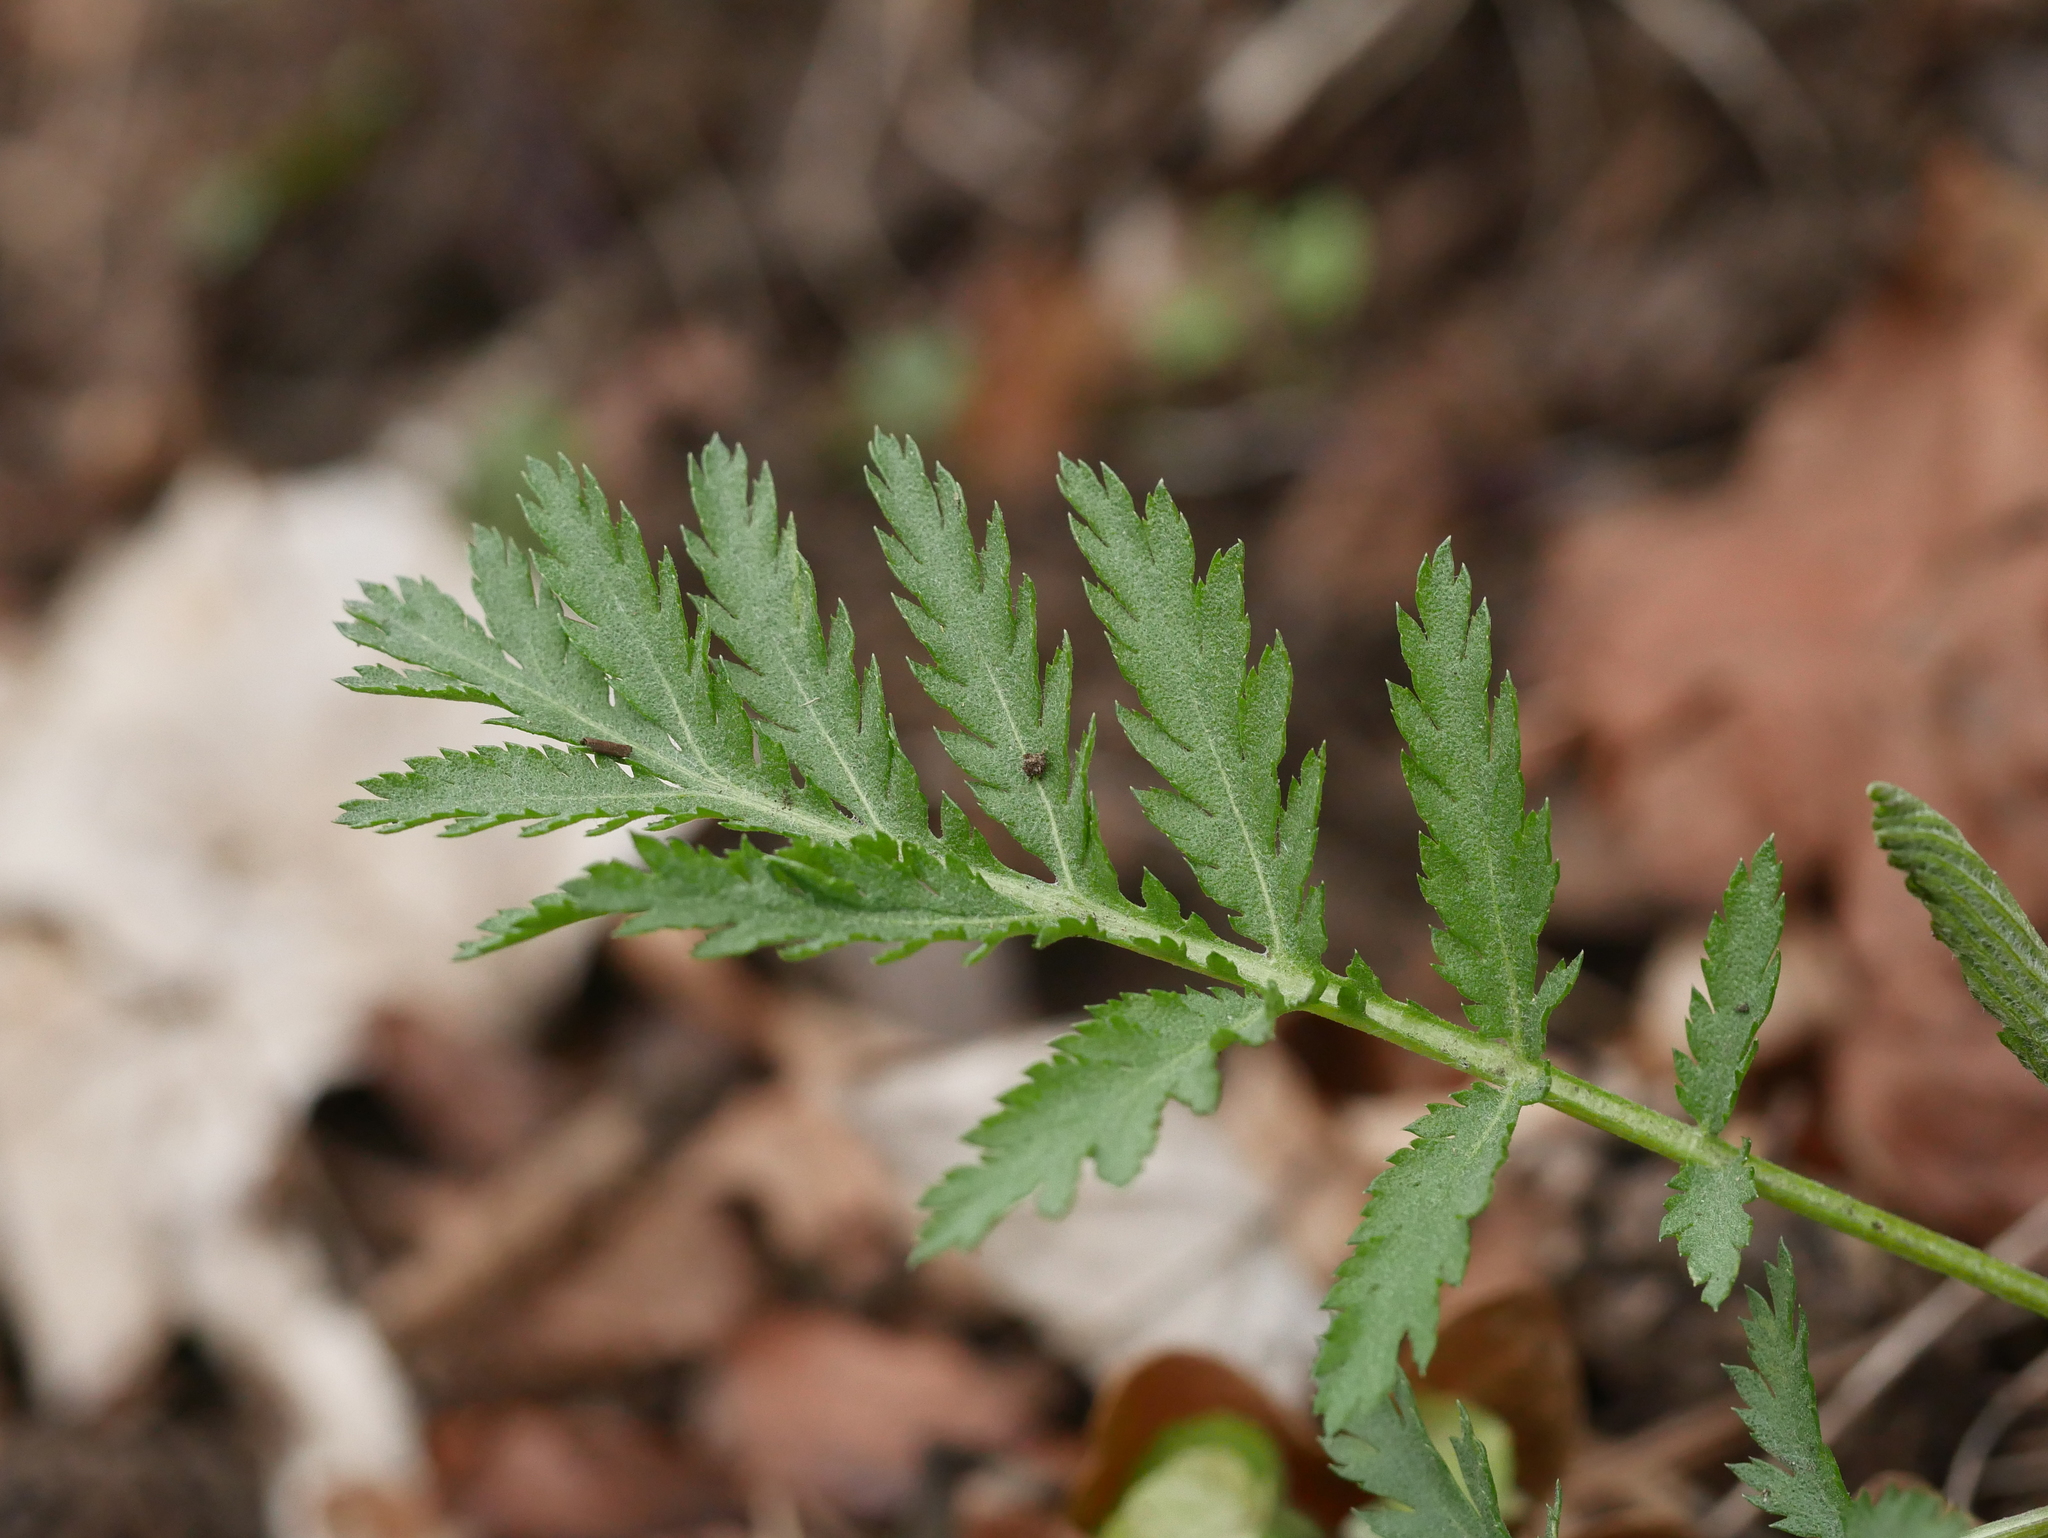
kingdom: Plantae
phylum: Tracheophyta
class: Magnoliopsida
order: Asterales
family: Asteraceae
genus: Tanacetum
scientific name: Tanacetum vulgare
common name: Common tansy
